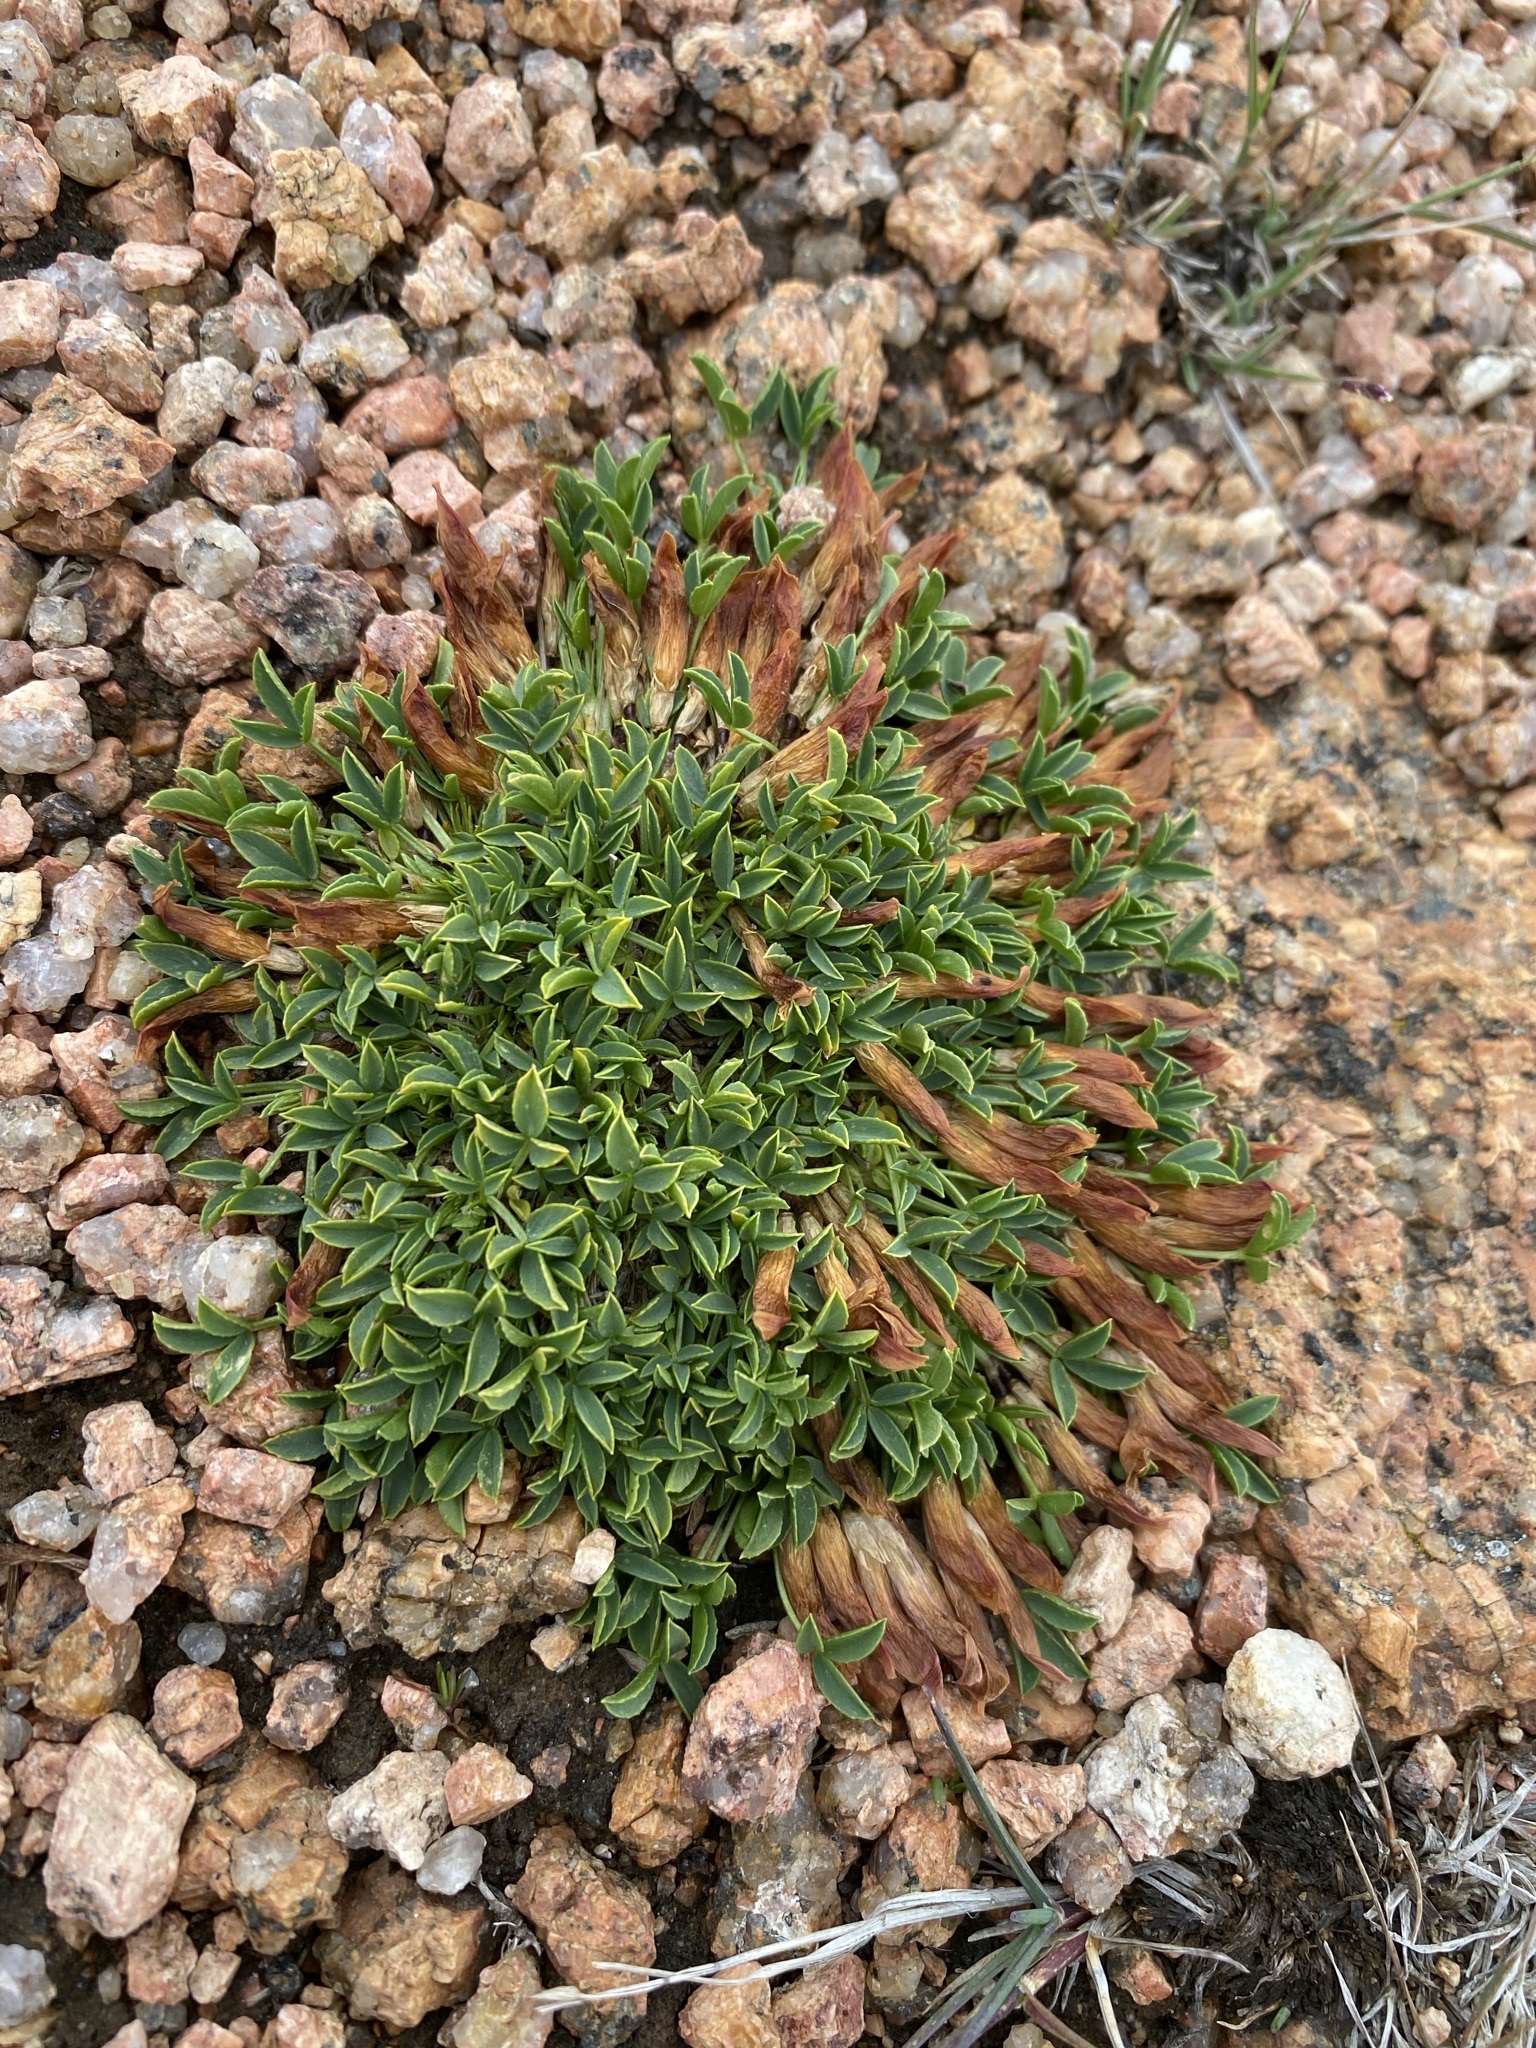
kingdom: Plantae
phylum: Tracheophyta
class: Magnoliopsida
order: Fabales
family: Fabaceae
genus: Trifolium
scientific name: Trifolium nanum
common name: Tundra clover
